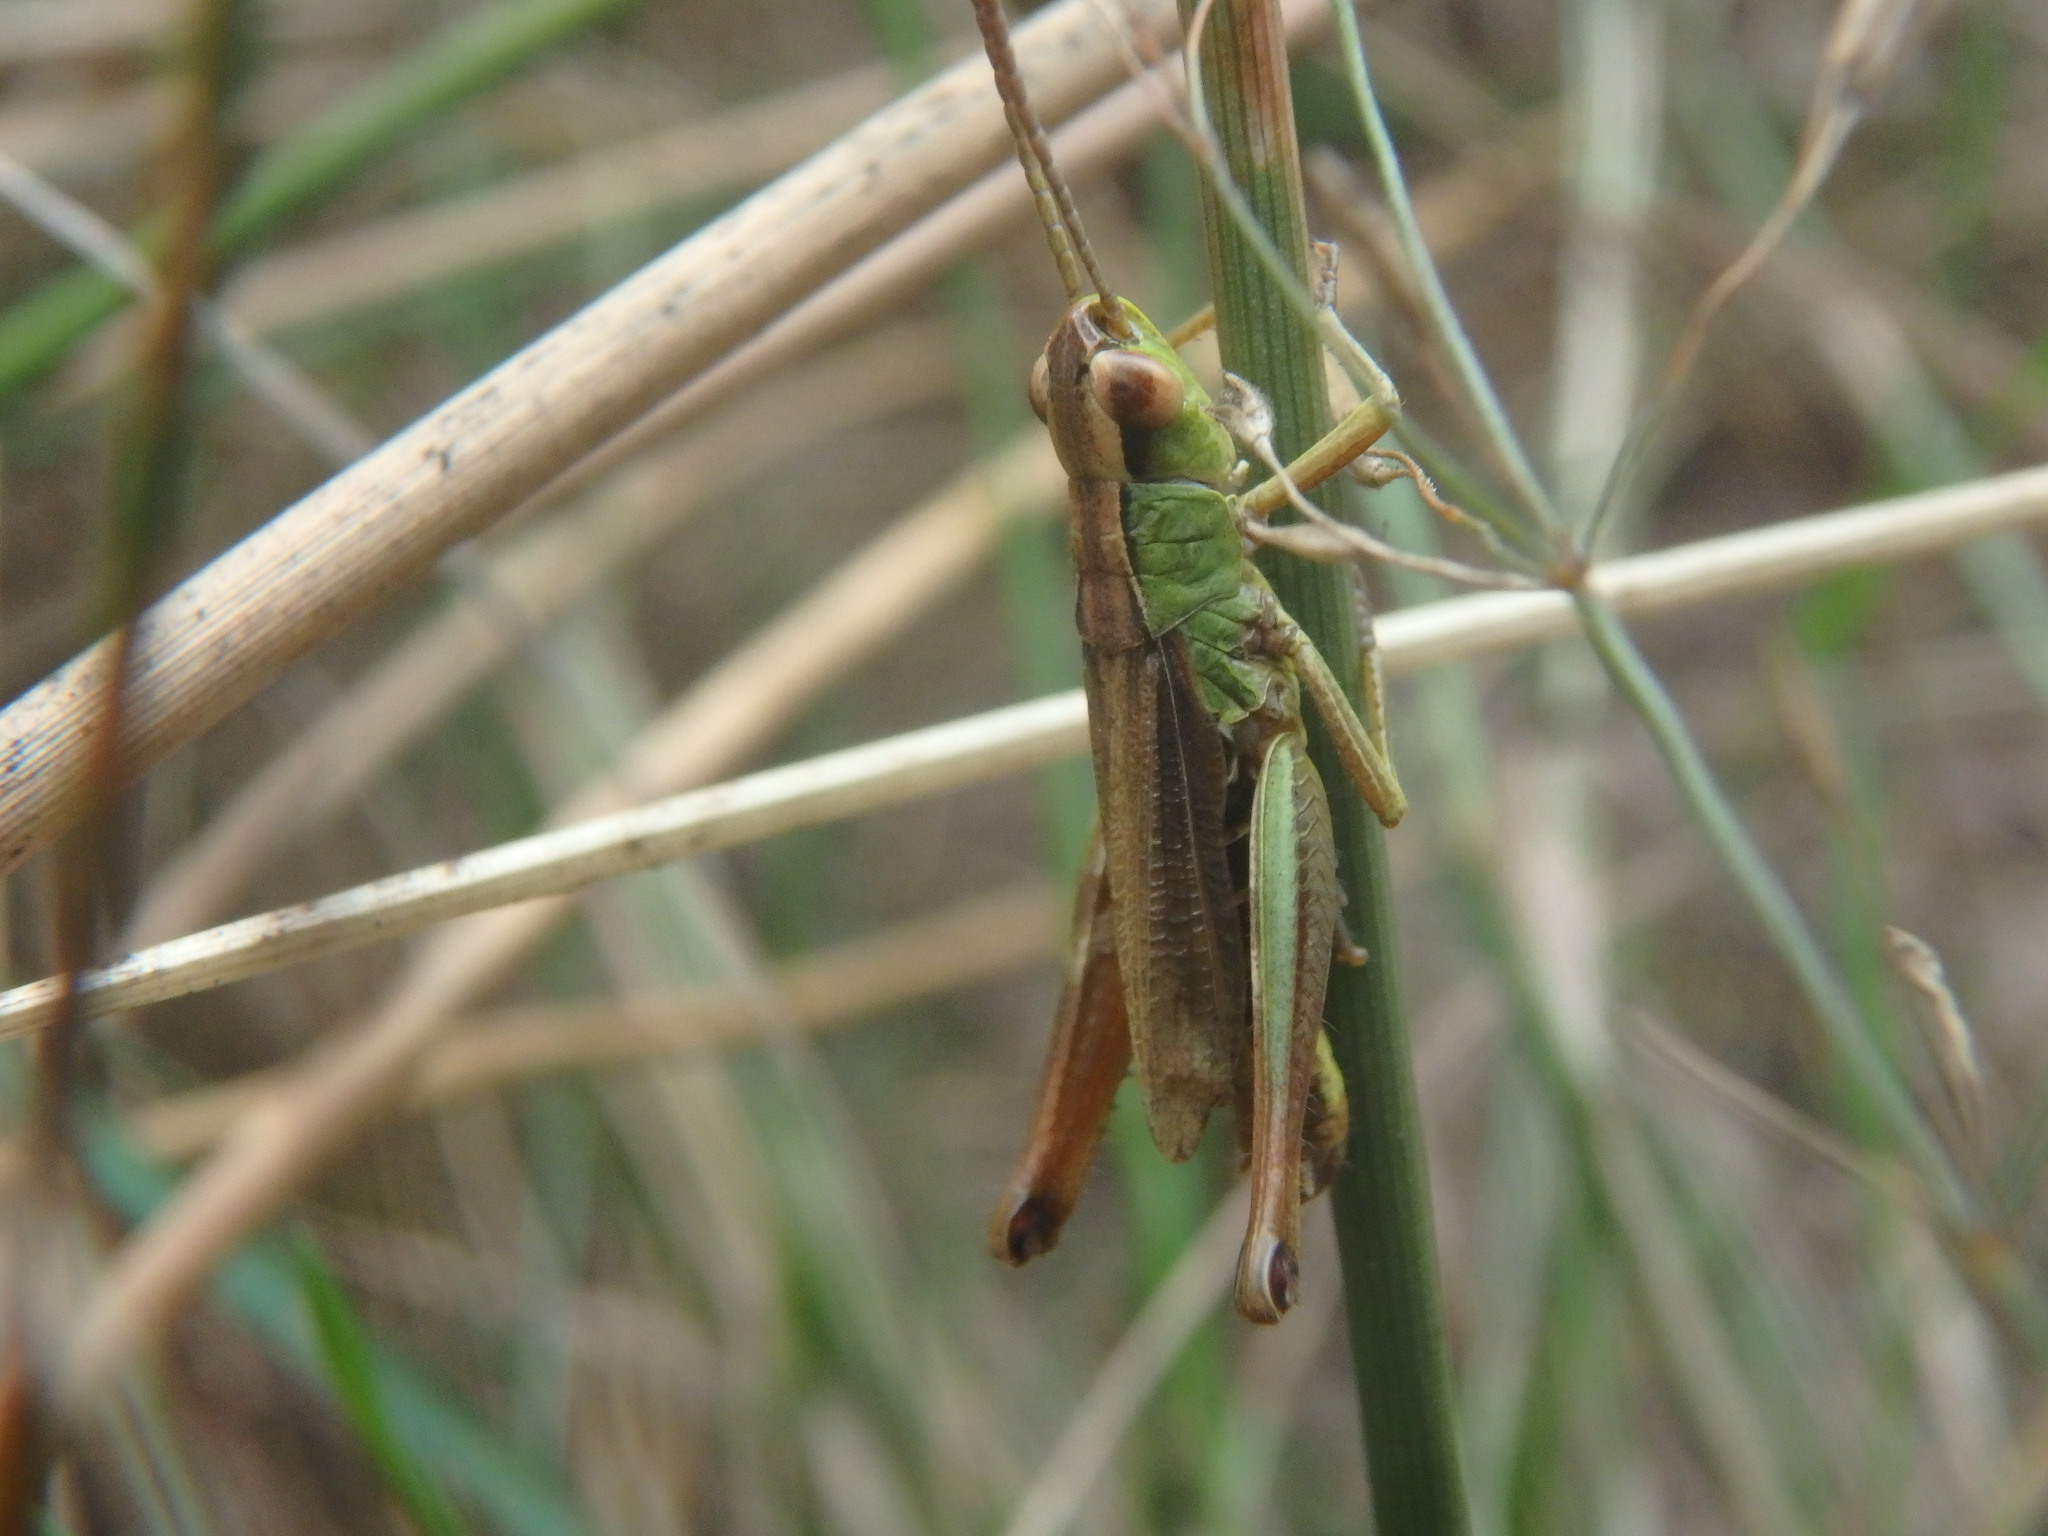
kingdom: Animalia
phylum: Arthropoda
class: Insecta
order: Orthoptera
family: Acrididae
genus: Pseudochorthippus
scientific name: Pseudochorthippus parallelus
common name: Meadow grasshopper
